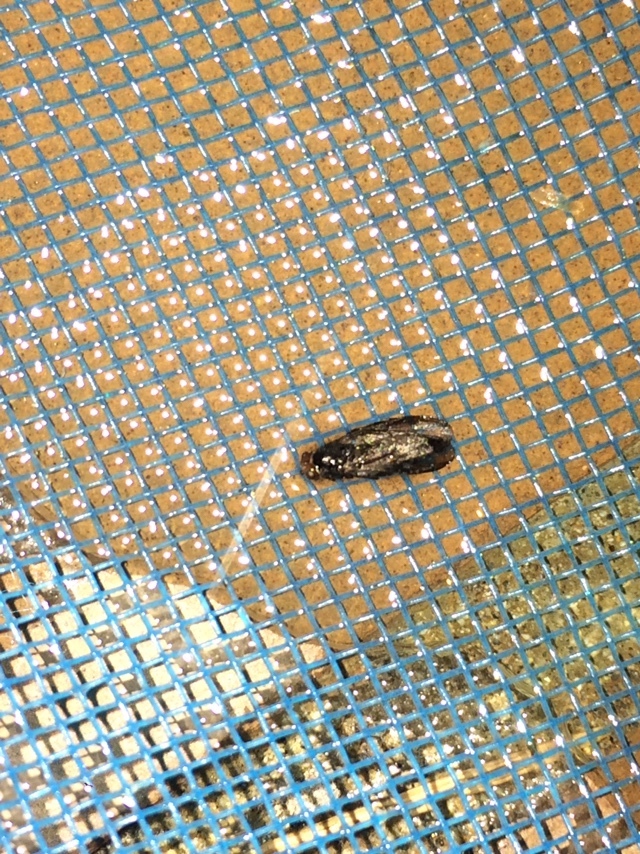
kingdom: Animalia
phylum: Arthropoda
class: Insecta
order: Diptera
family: Stratiomyidae
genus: Inopus
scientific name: Inopus rubriceps
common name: Soldier fly
